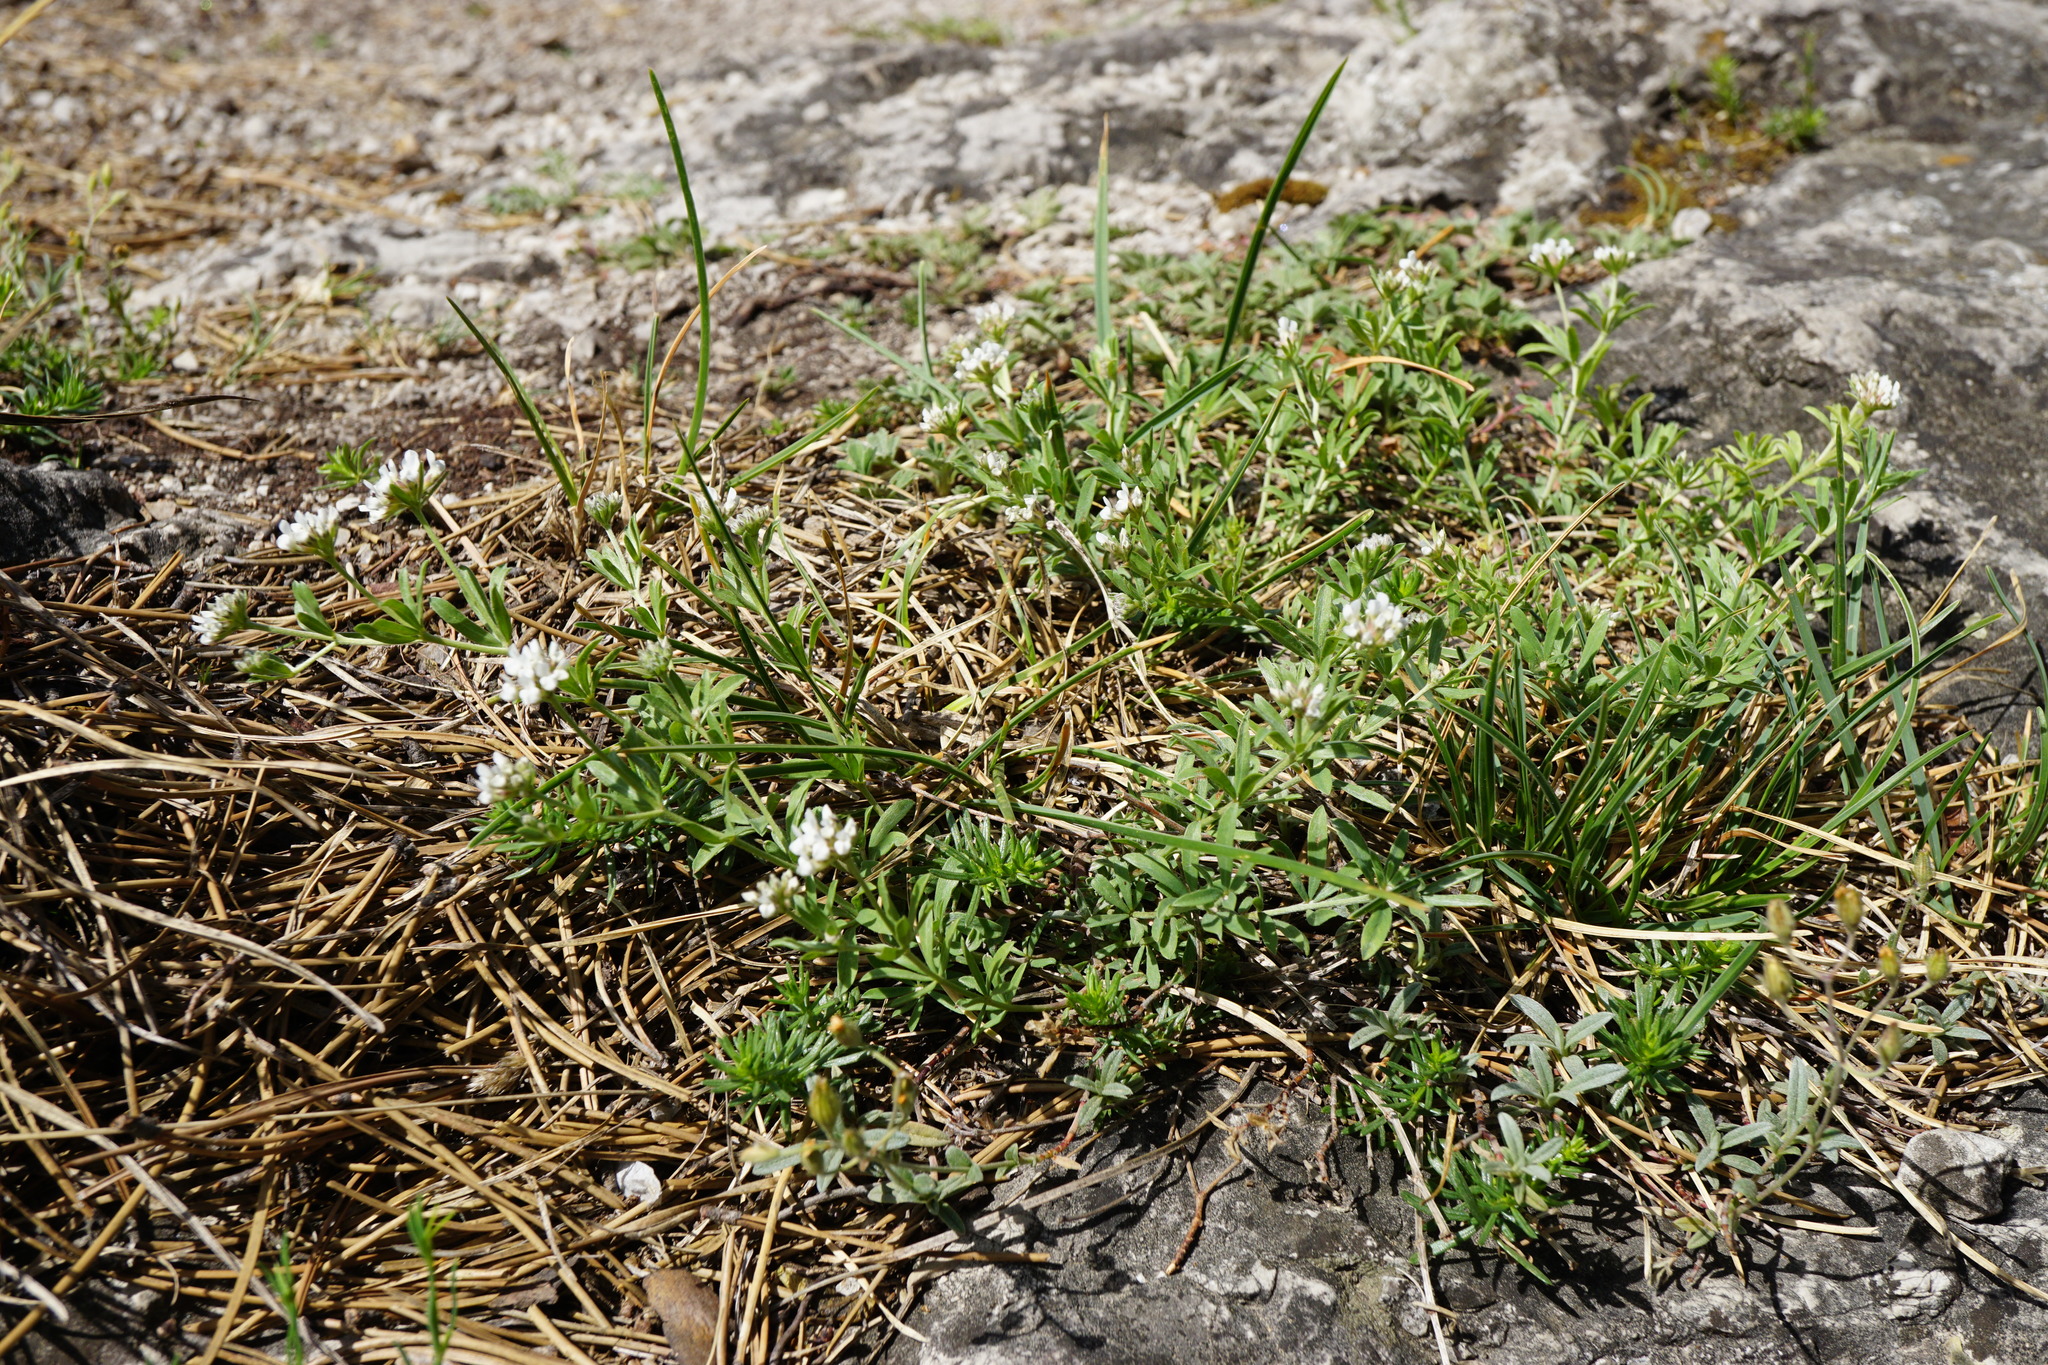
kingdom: Plantae
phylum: Tracheophyta
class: Magnoliopsida
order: Fabales
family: Fabaceae
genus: Lotus
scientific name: Lotus germanicus
